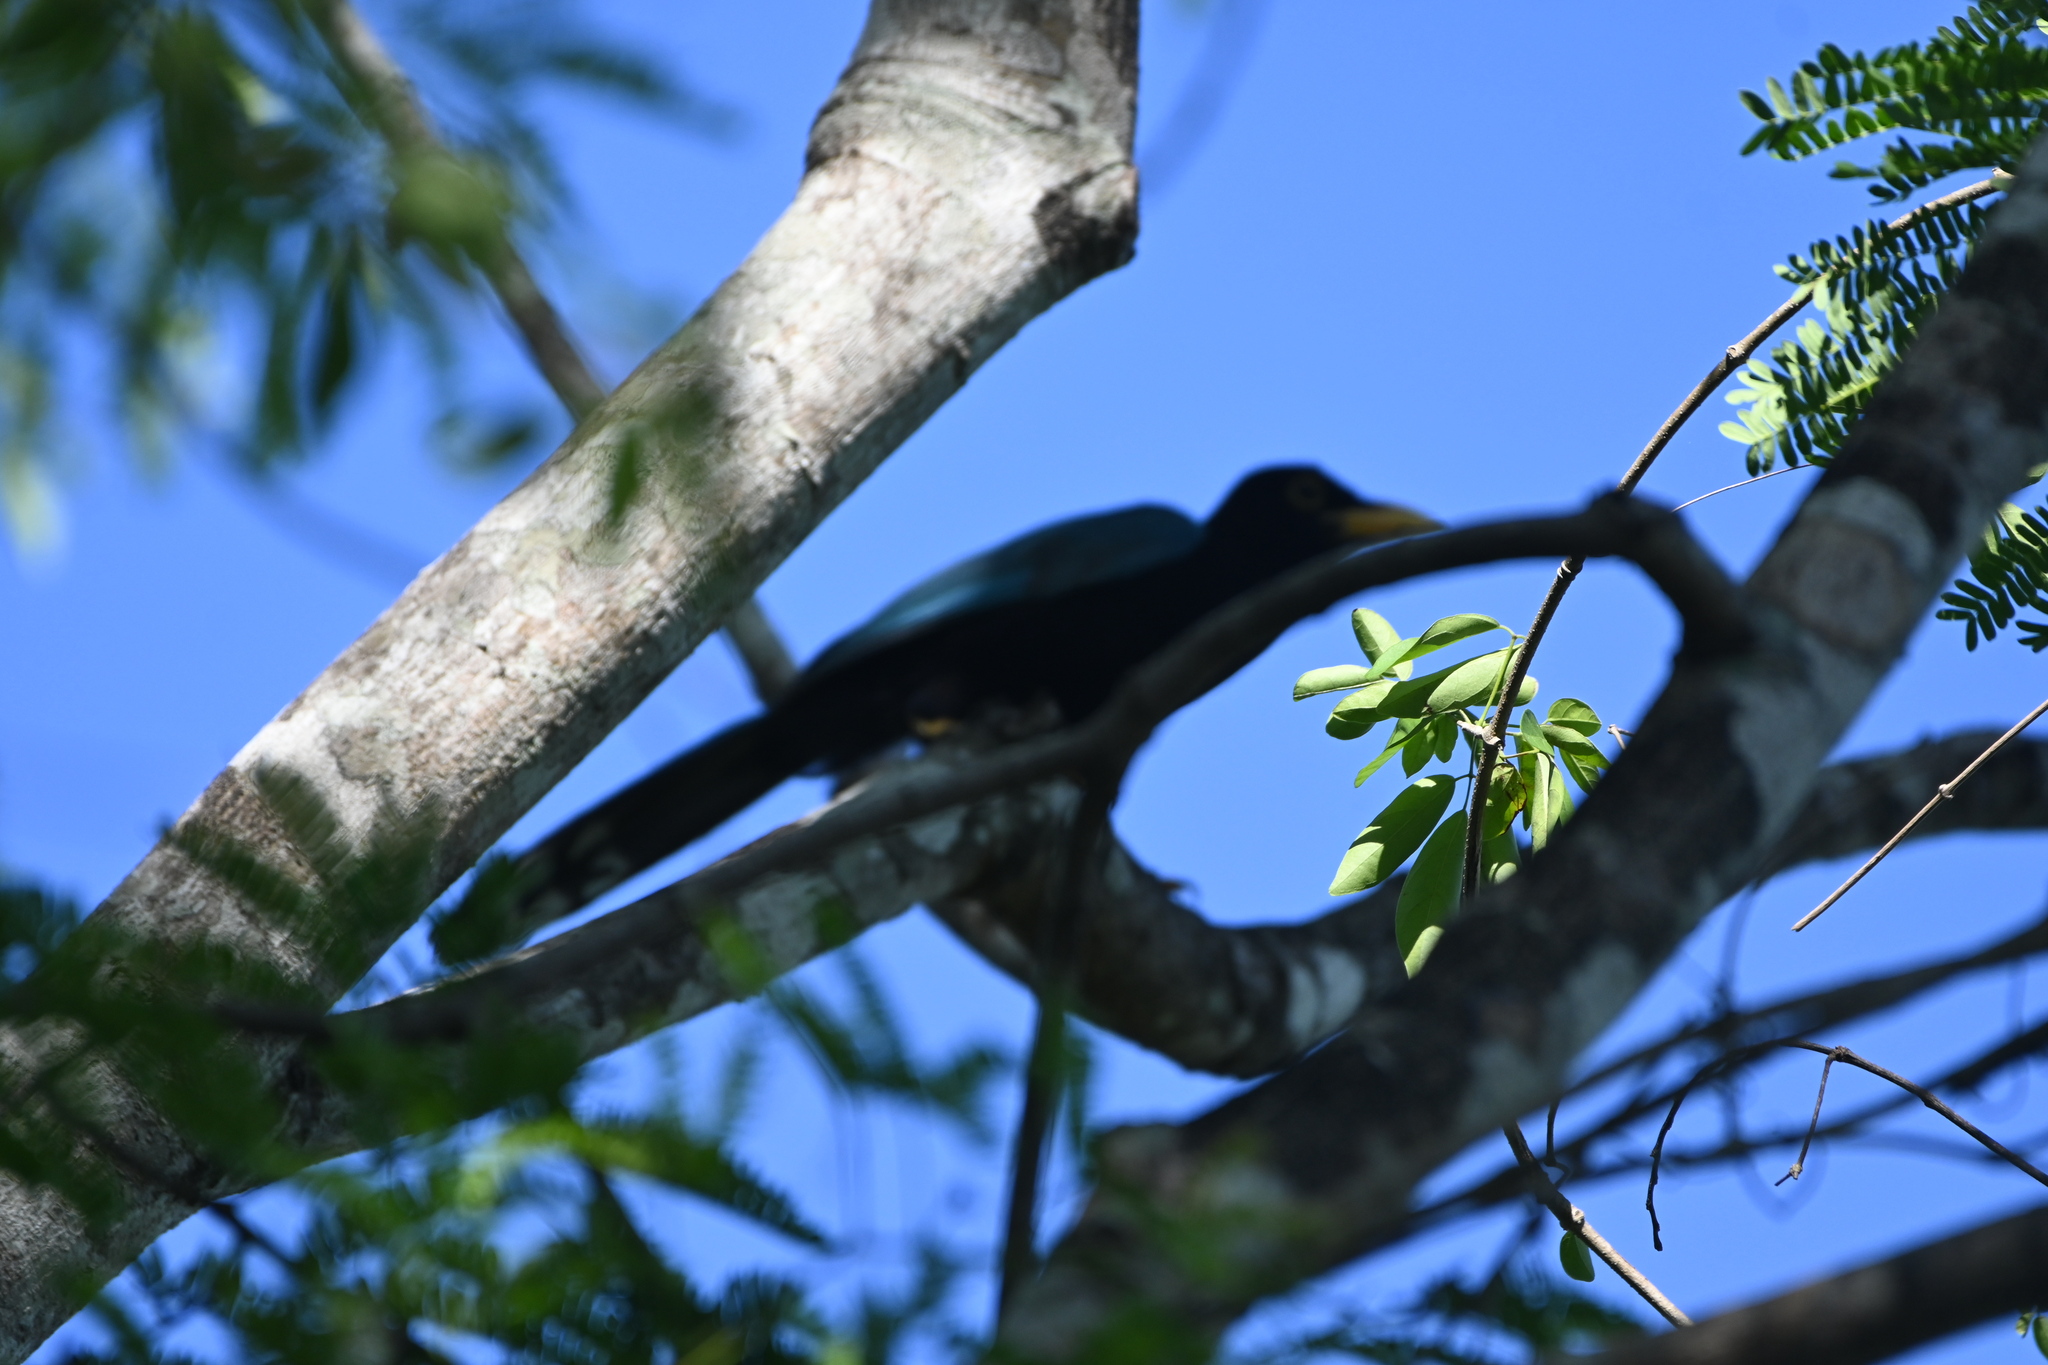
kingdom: Animalia
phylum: Chordata
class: Aves
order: Passeriformes
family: Corvidae
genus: Cyanocorax
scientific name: Cyanocorax yucatanicus
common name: Yucatan jay
